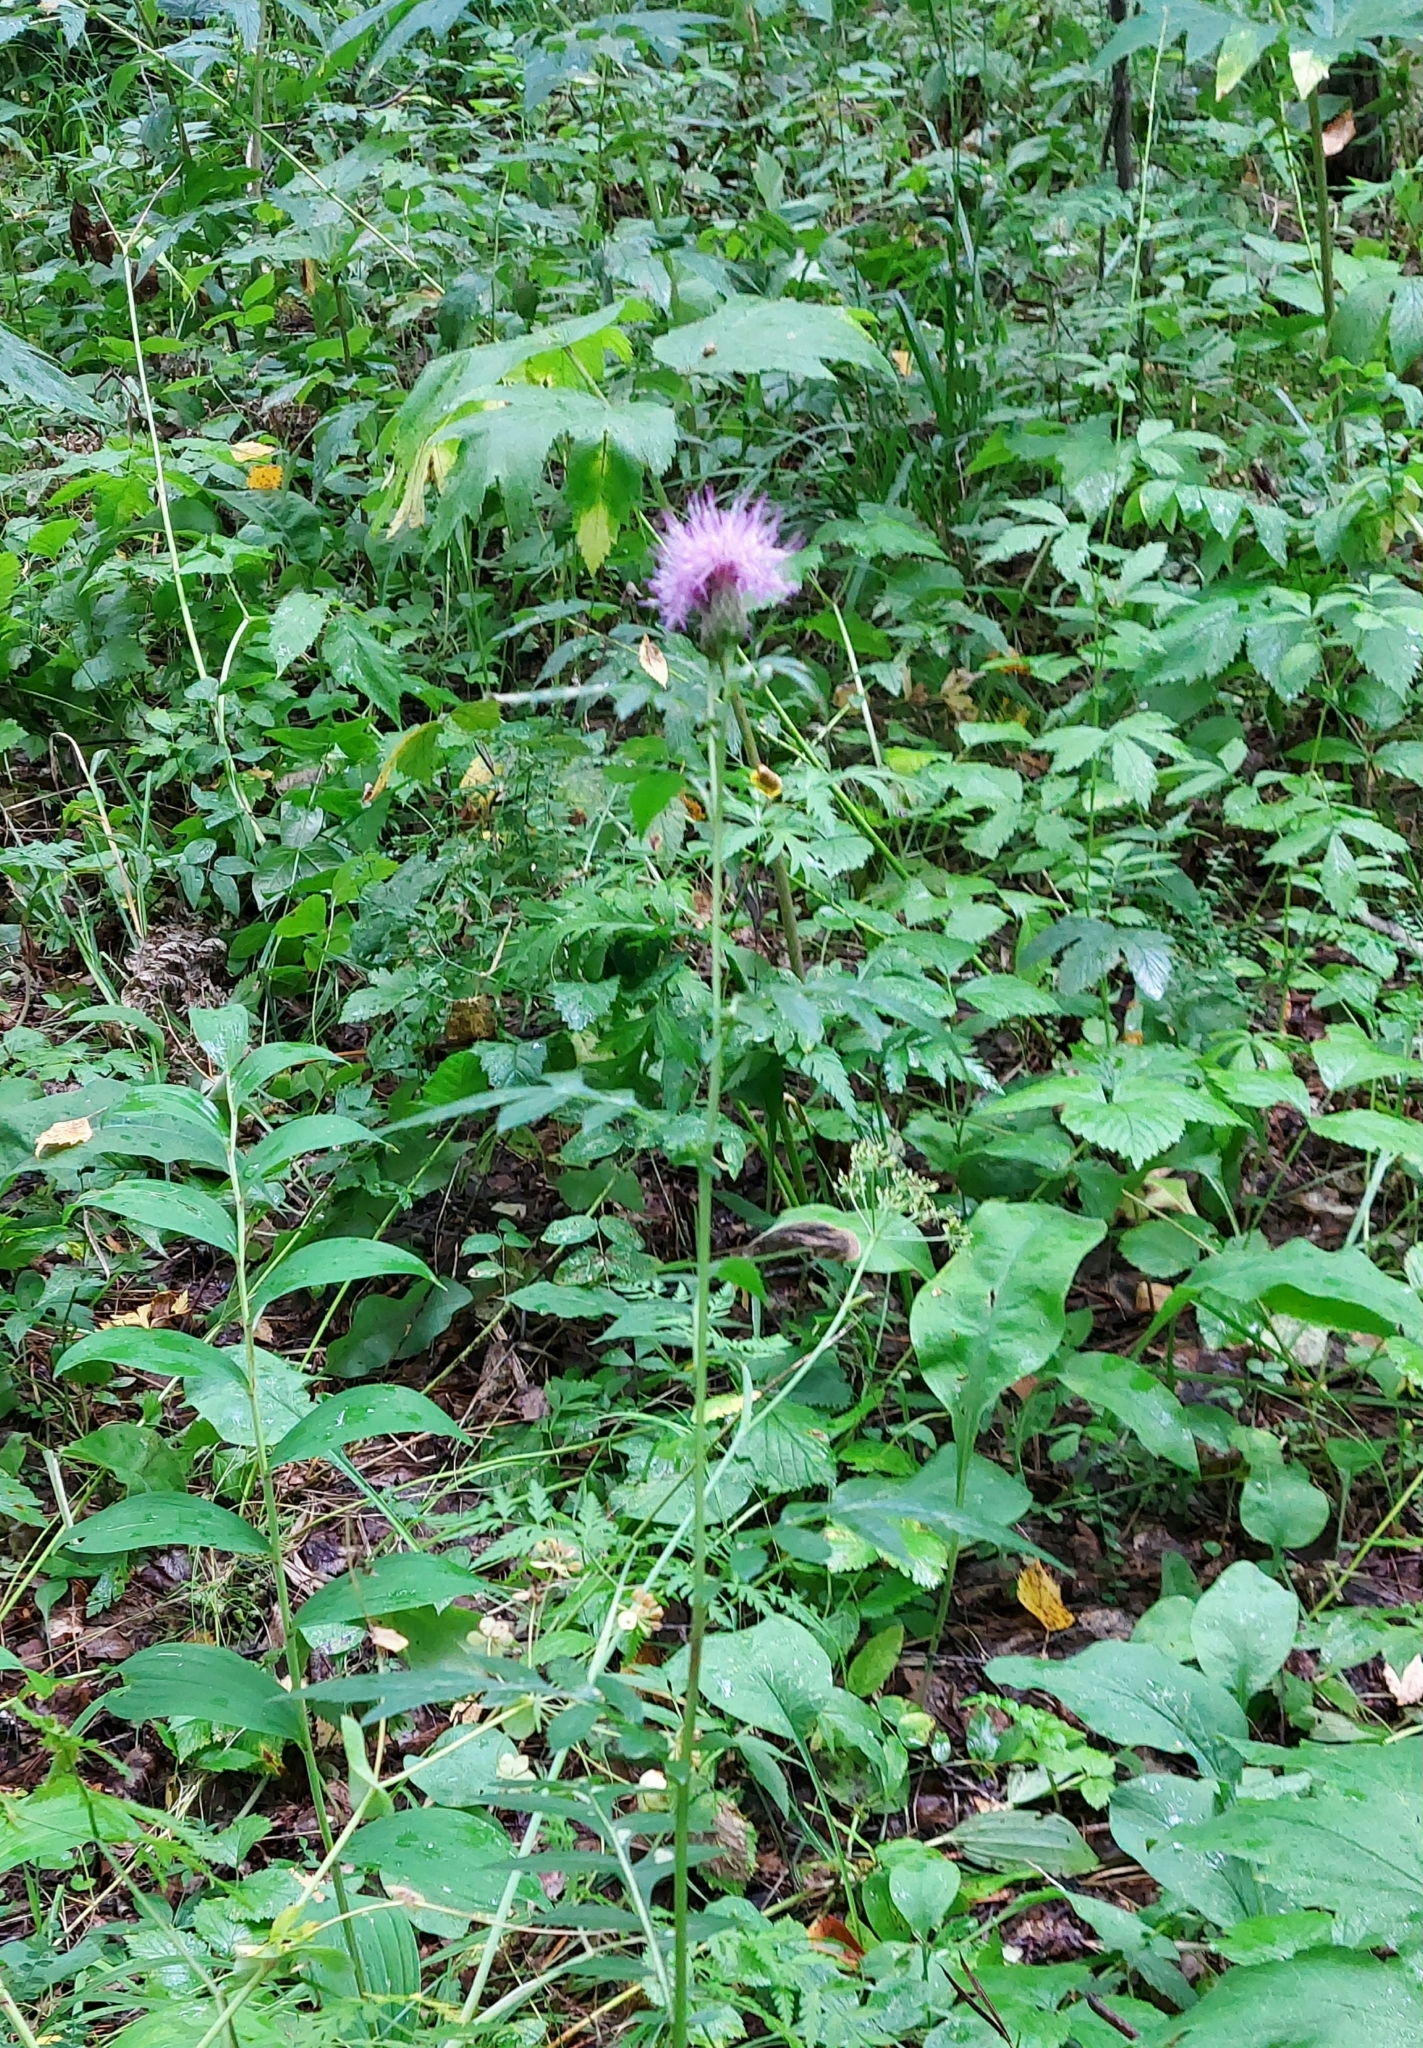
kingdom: Plantae
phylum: Tracheophyta
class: Magnoliopsida
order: Asterales
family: Asteraceae
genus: Serratula
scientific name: Serratula coronata
